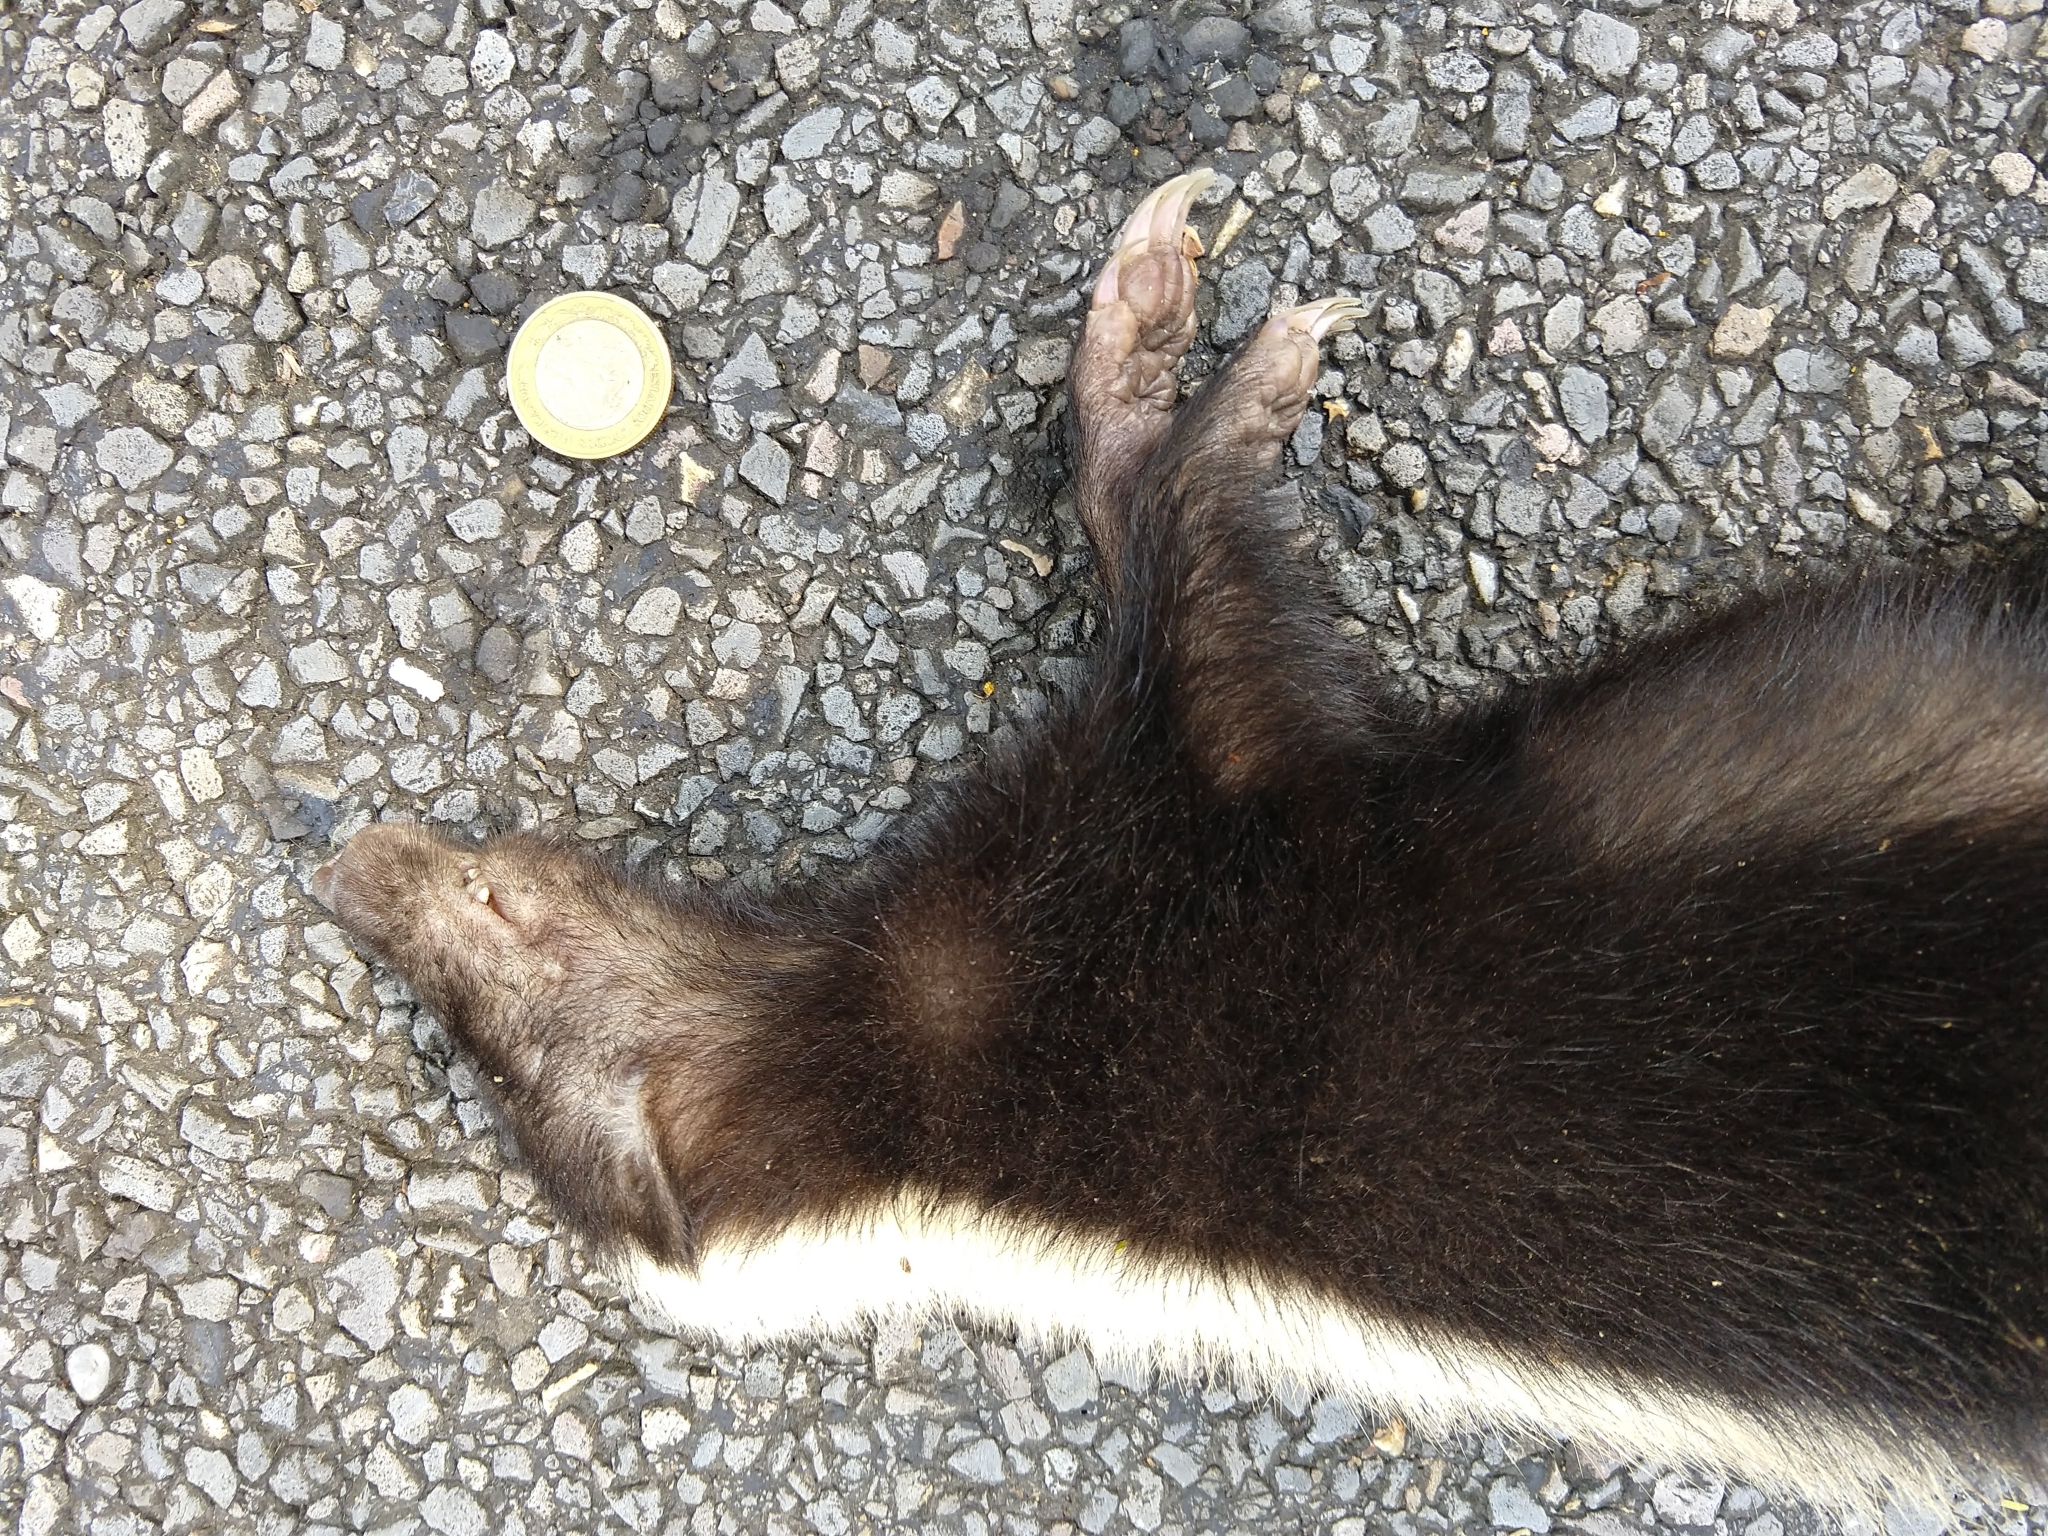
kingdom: Animalia
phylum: Chordata
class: Mammalia
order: Carnivora
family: Mephitidae
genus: Conepatus
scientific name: Conepatus semistriatus
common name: Striped hog-nosed skunk
